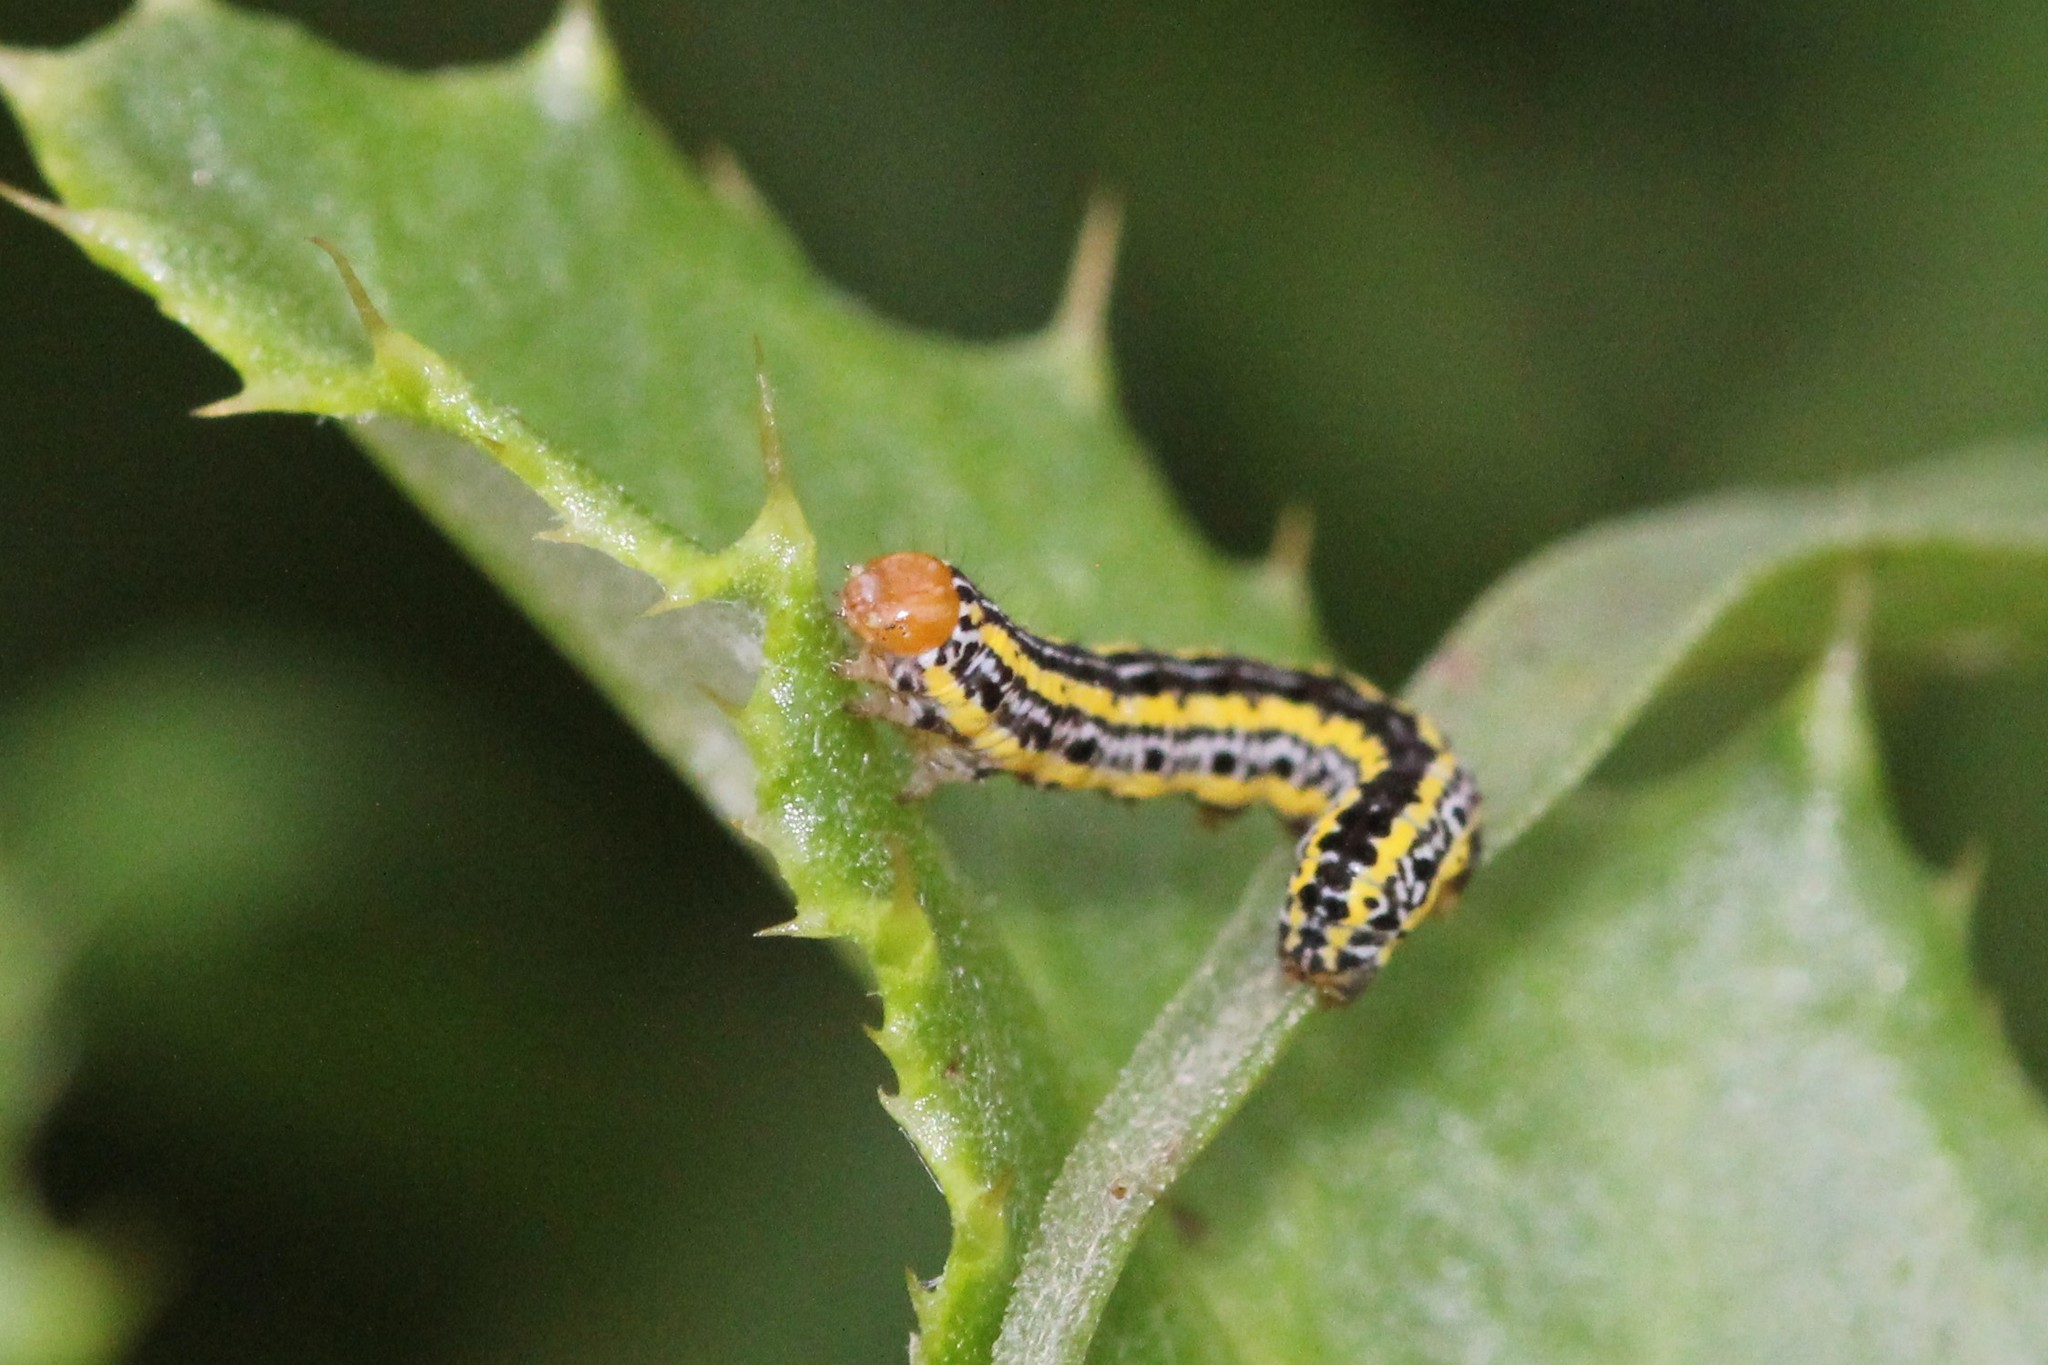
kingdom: Animalia
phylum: Arthropoda
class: Insecta
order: Lepidoptera
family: Noctuidae
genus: Melanchra
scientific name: Melanchra picta
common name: Zebra caterpillar
